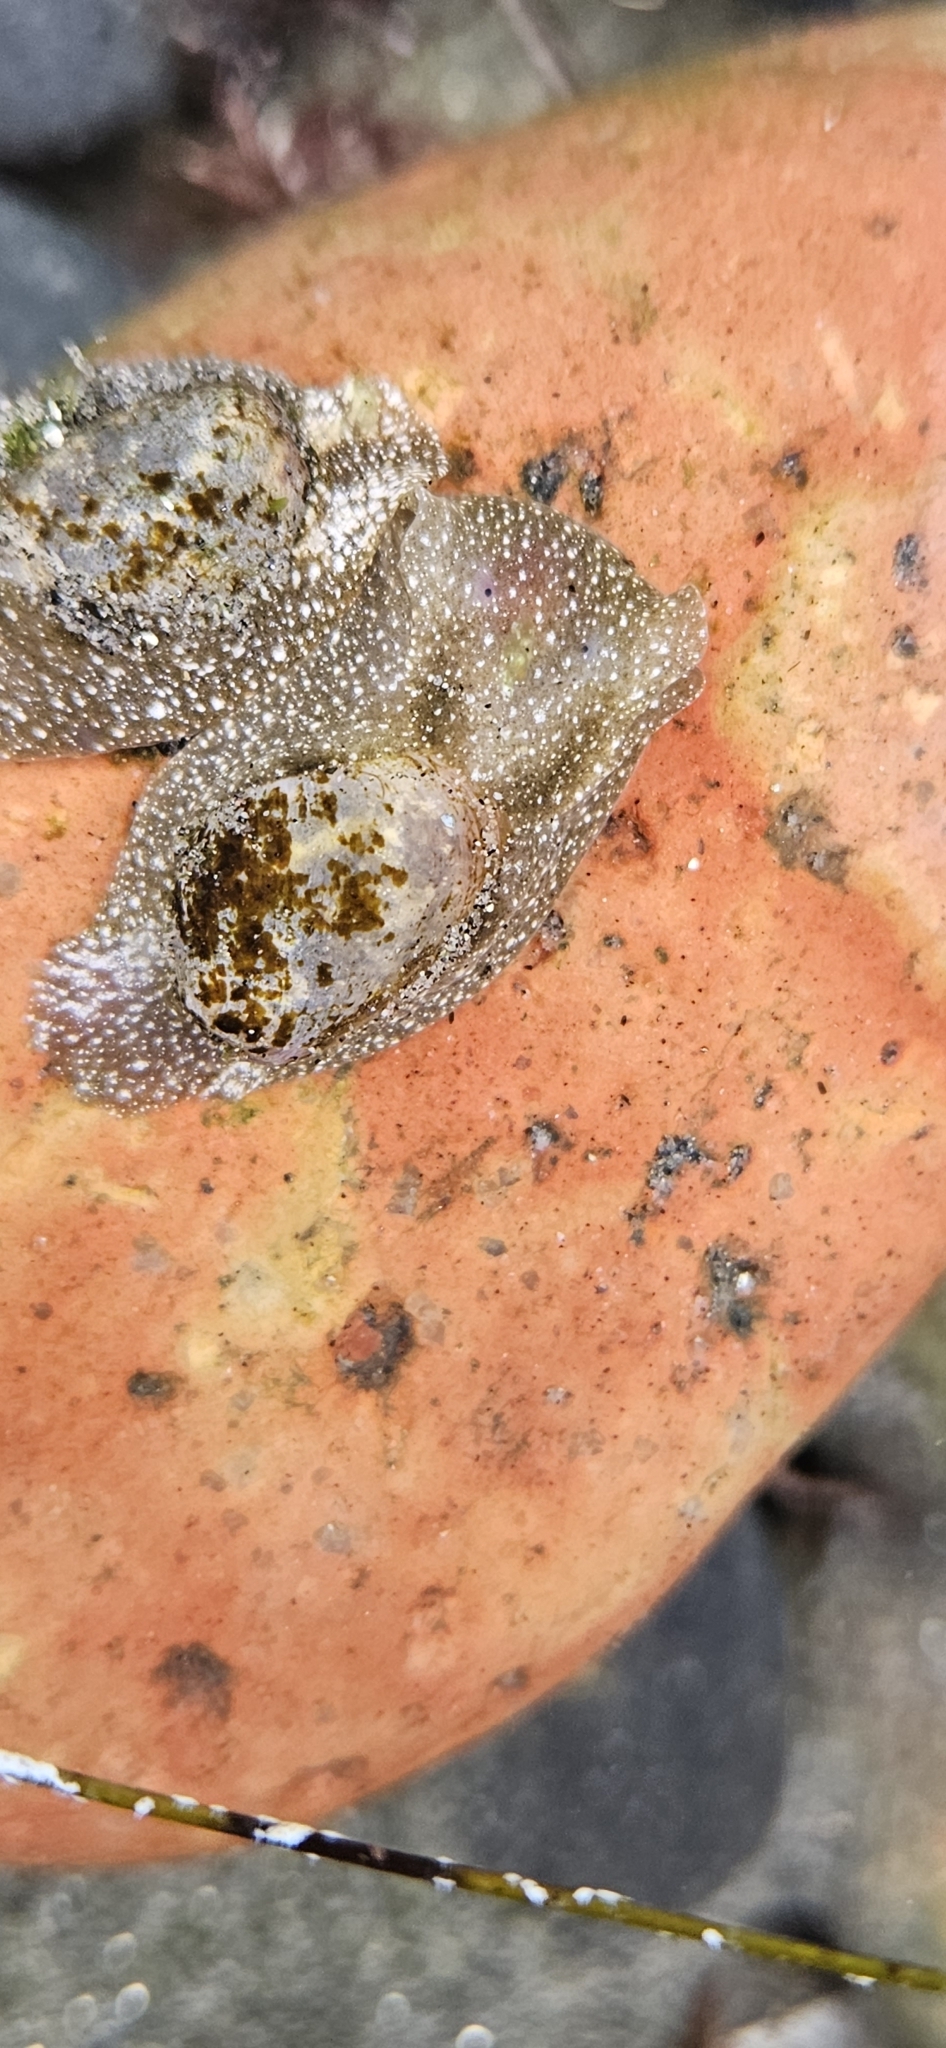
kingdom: Animalia
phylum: Mollusca
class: Gastropoda
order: Cephalaspidea
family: Haminoeidae
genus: Haminoea
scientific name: Haminoea virescens
